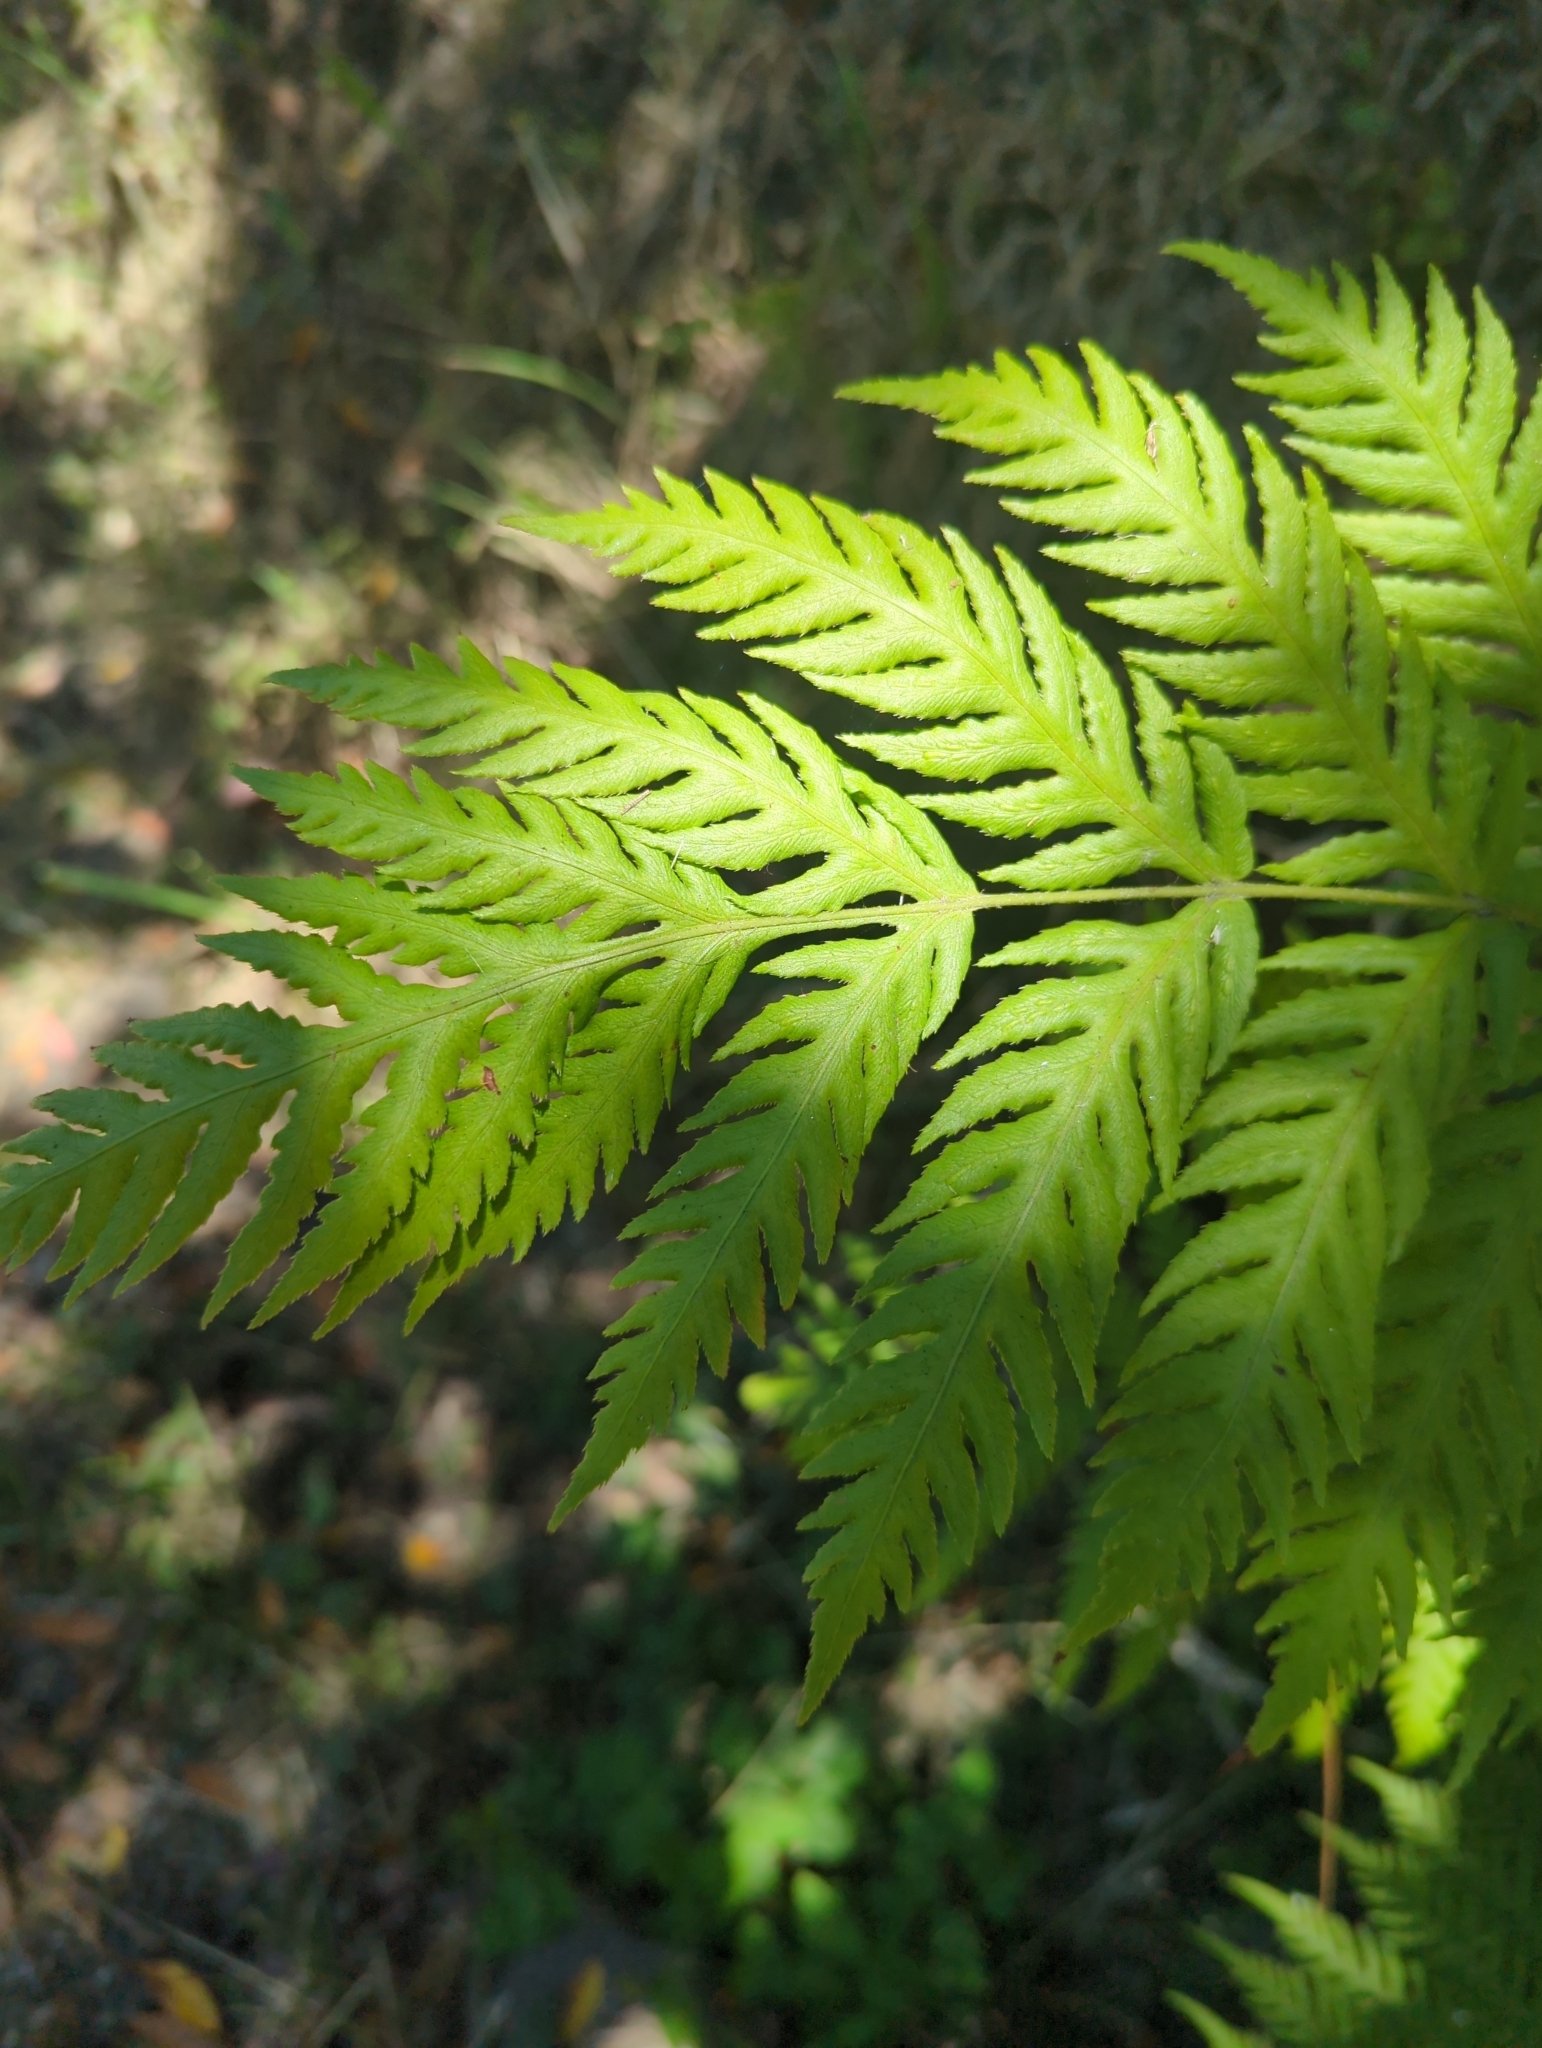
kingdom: Plantae
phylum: Tracheophyta
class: Polypodiopsida
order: Polypodiales
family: Blechnaceae
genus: Woodwardia
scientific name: Woodwardia fimbriata
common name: Giant chain fern
